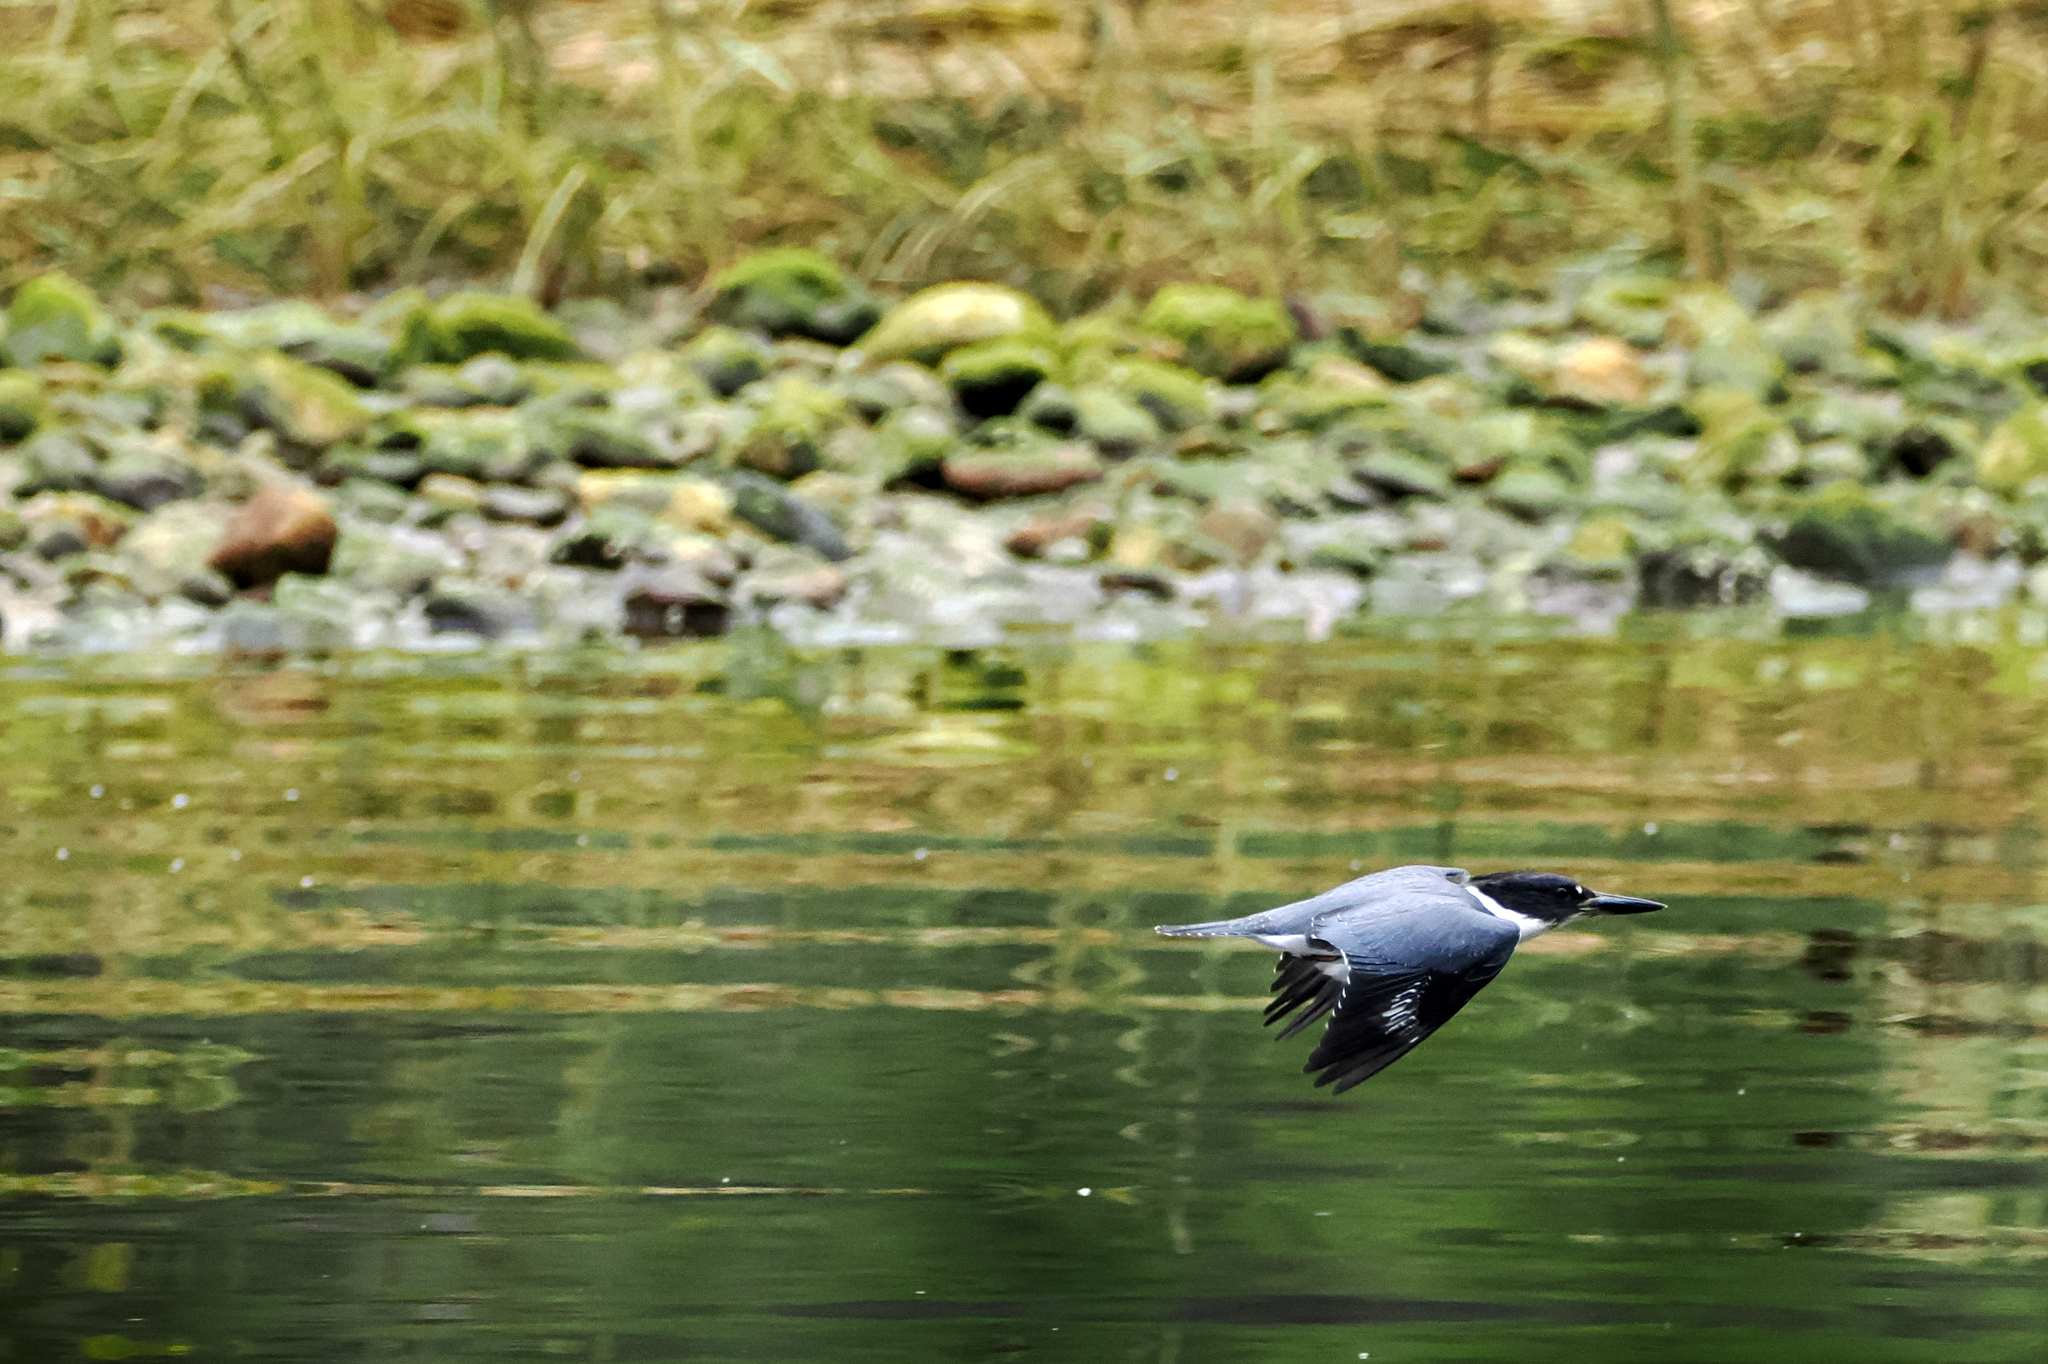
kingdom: Animalia
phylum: Chordata
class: Aves
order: Coraciiformes
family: Alcedinidae
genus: Megaceryle
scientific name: Megaceryle alcyon
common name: Belted kingfisher
